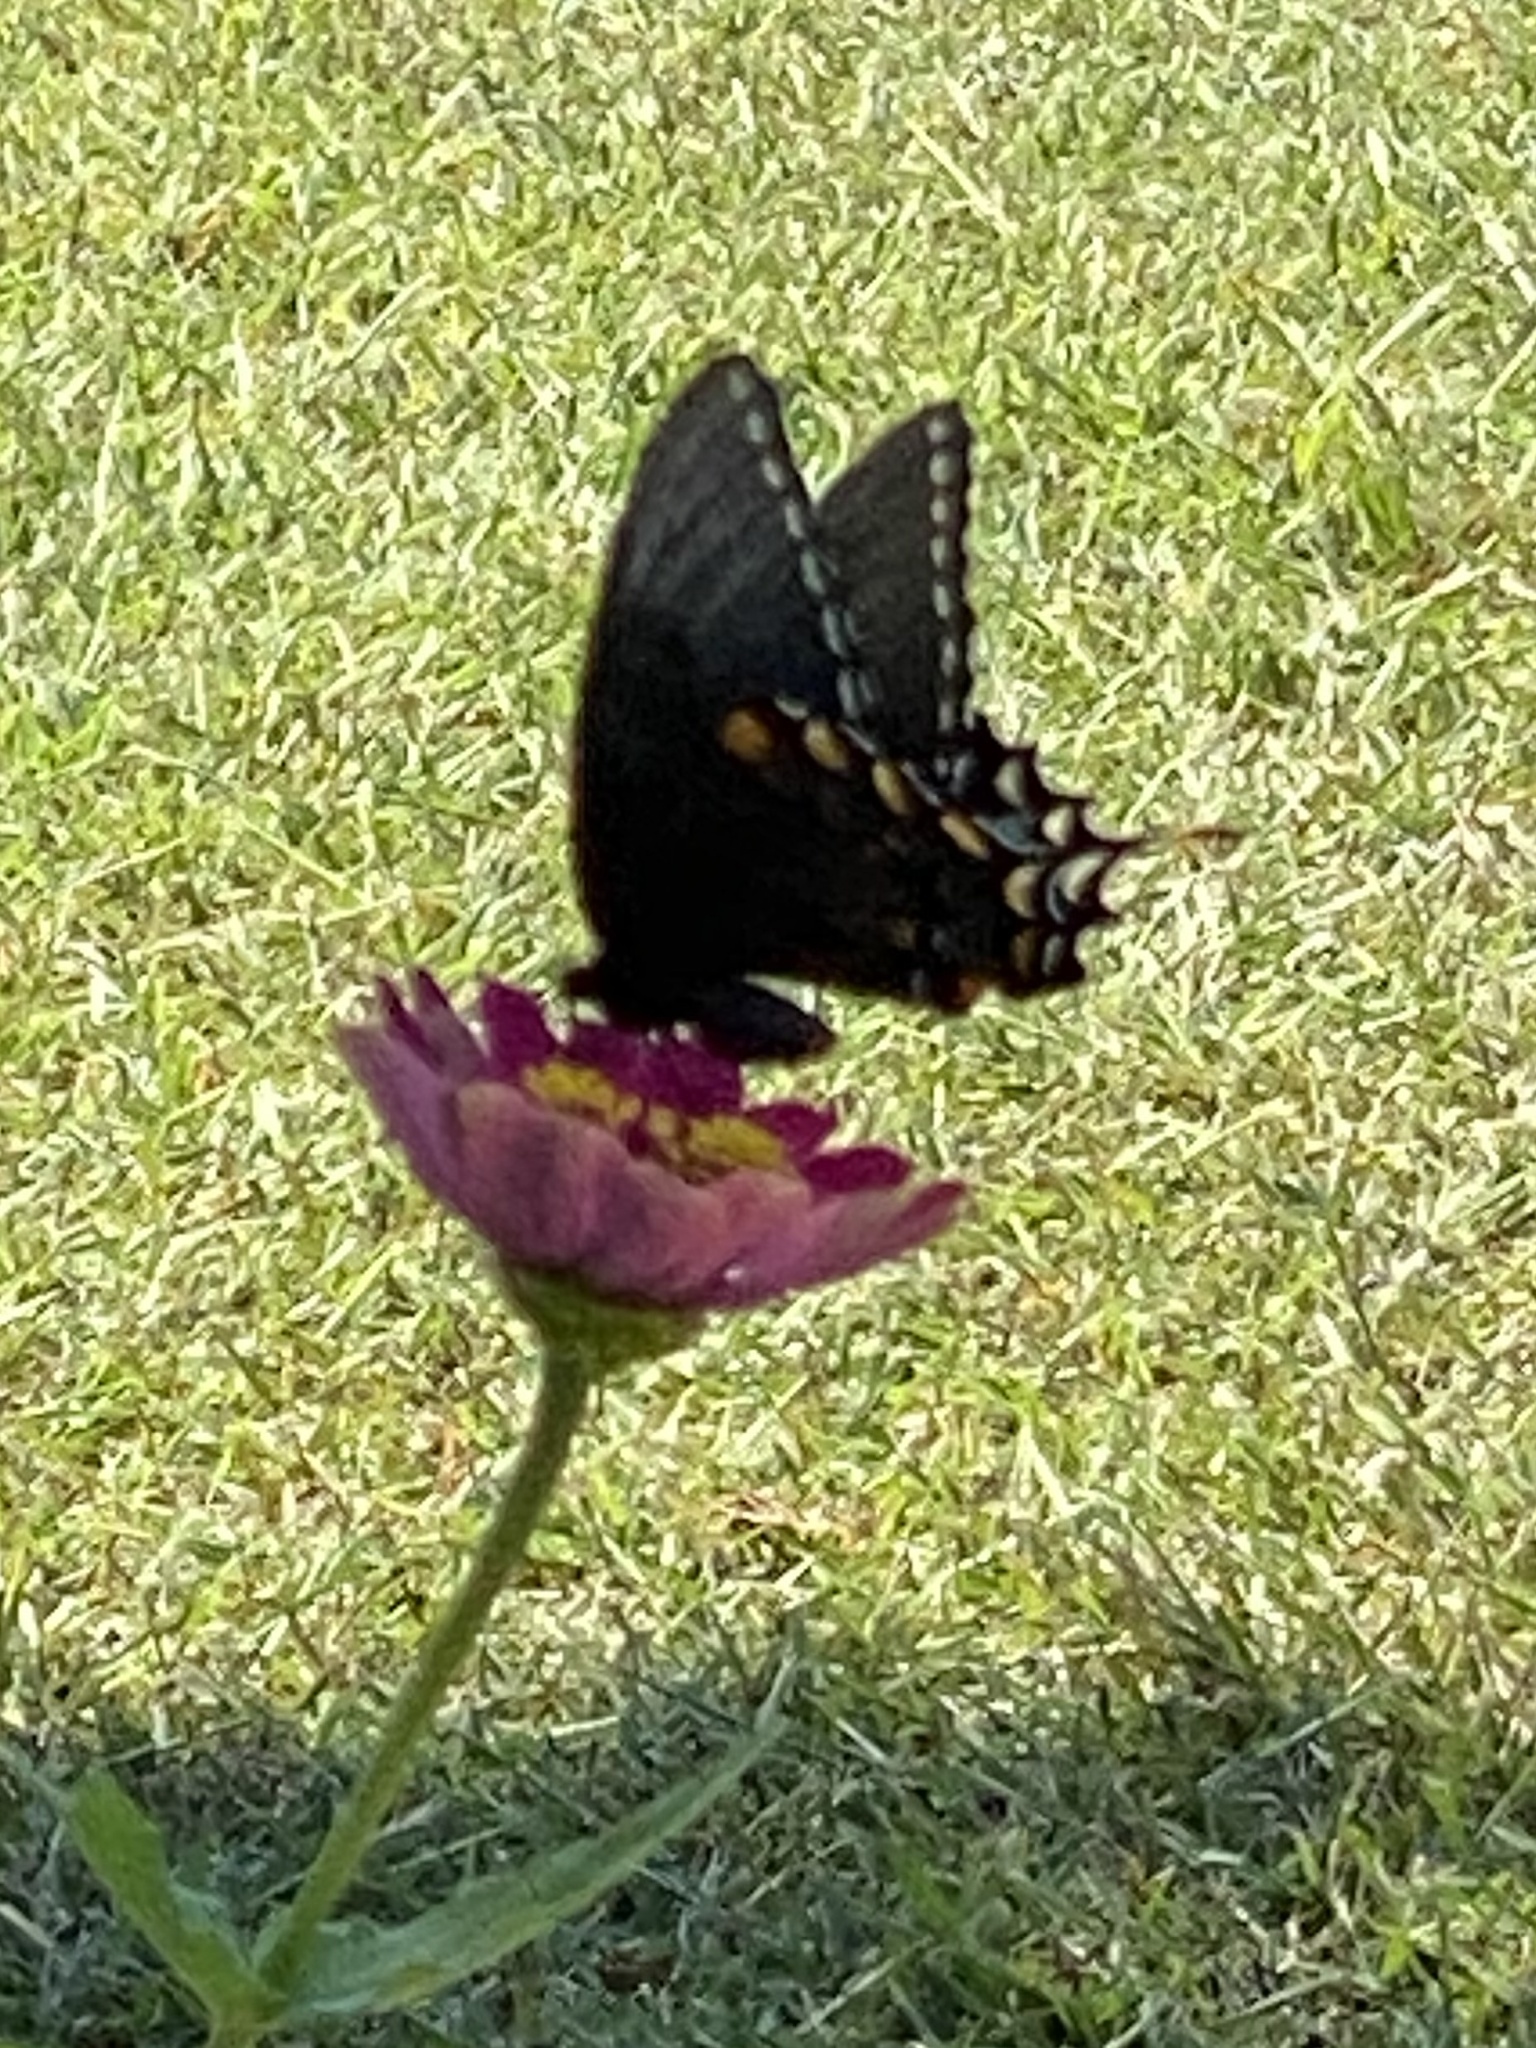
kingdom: Animalia
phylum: Arthropoda
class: Insecta
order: Lepidoptera
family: Papilionidae
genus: Papilio
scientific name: Papilio glaucus
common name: Tiger swallowtail
